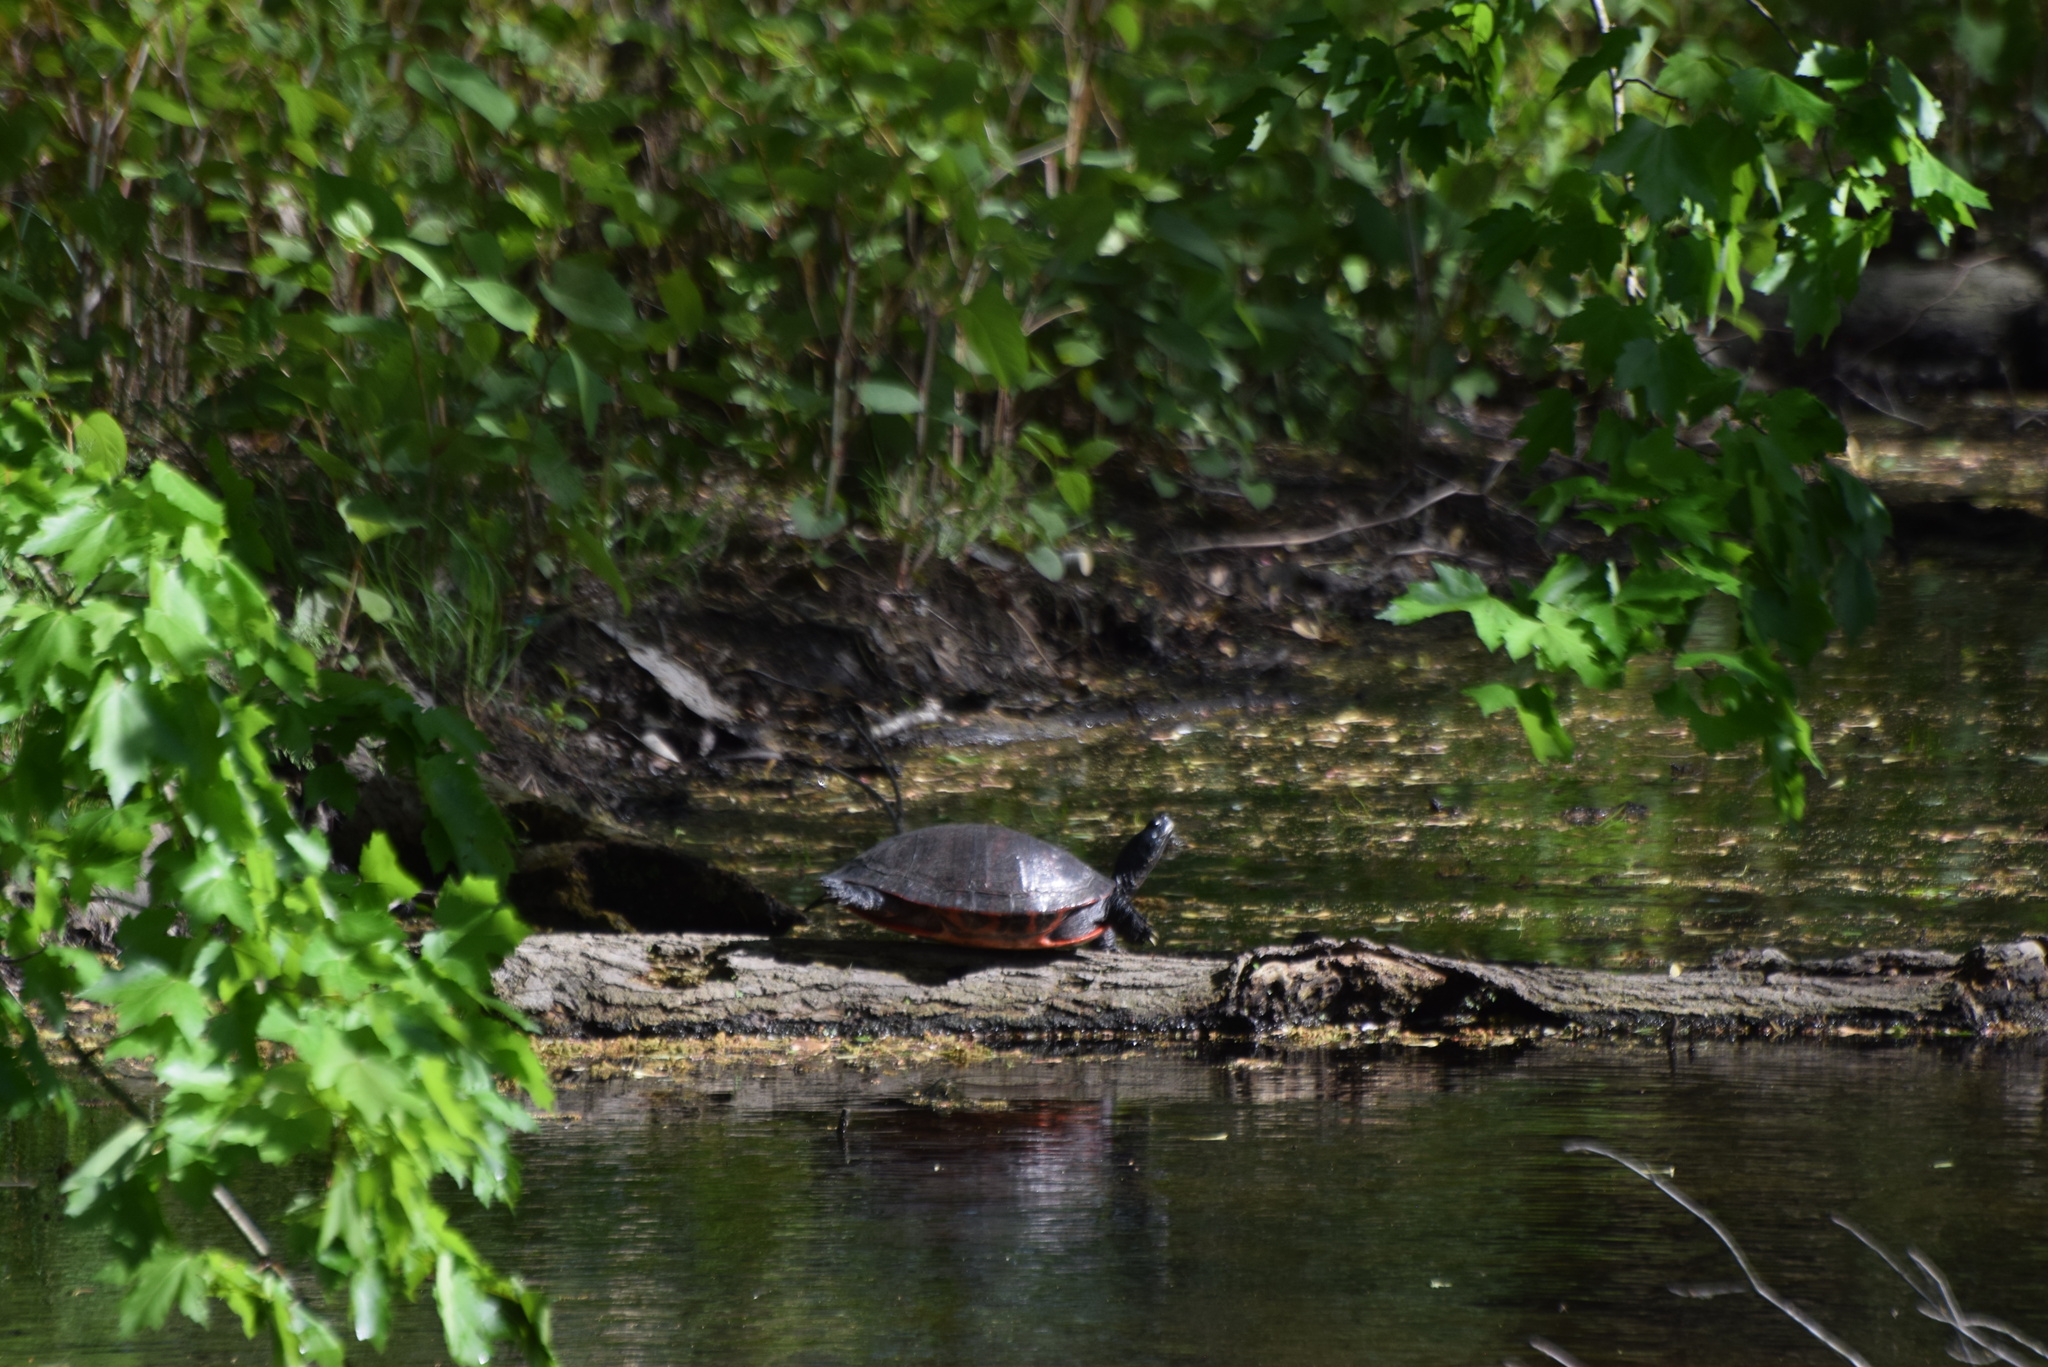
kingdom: Animalia
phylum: Chordata
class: Testudines
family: Emydidae
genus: Pseudemys
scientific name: Pseudemys rubriventris
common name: American red-bellied turtle
